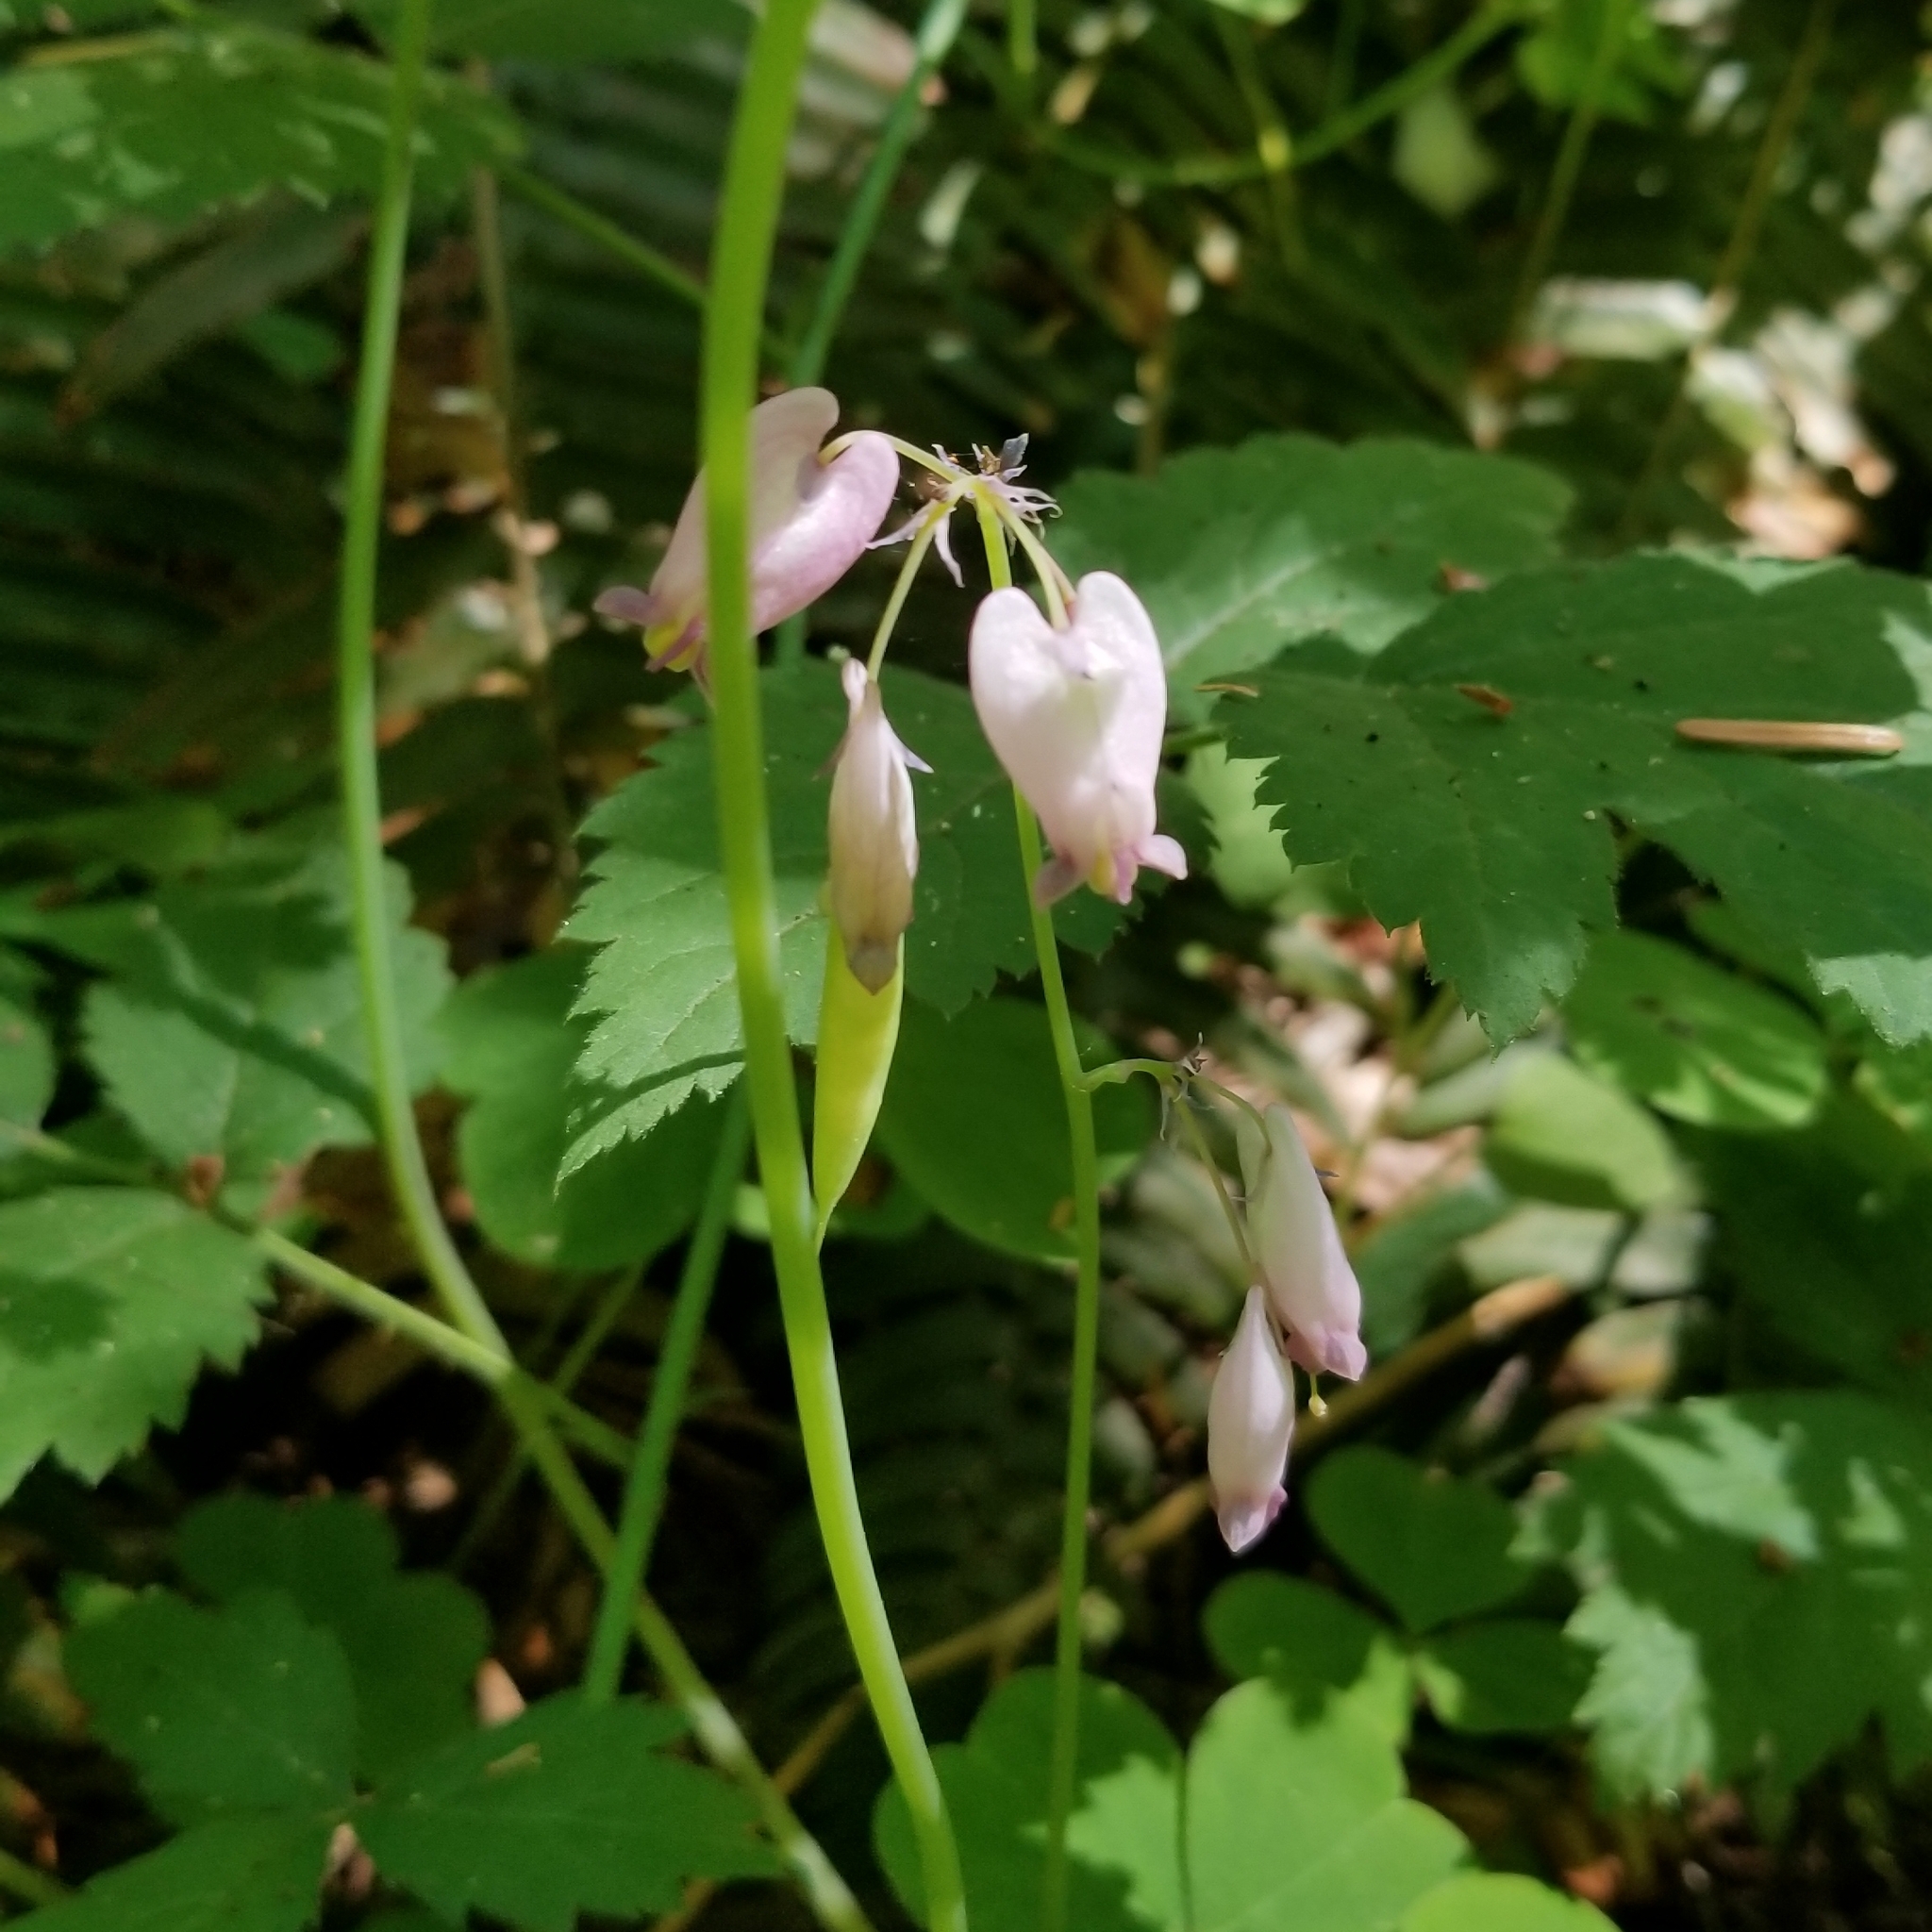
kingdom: Plantae
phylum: Tracheophyta
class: Magnoliopsida
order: Ranunculales
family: Papaveraceae
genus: Dicentra
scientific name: Dicentra formosa
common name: Bleeding-heart
